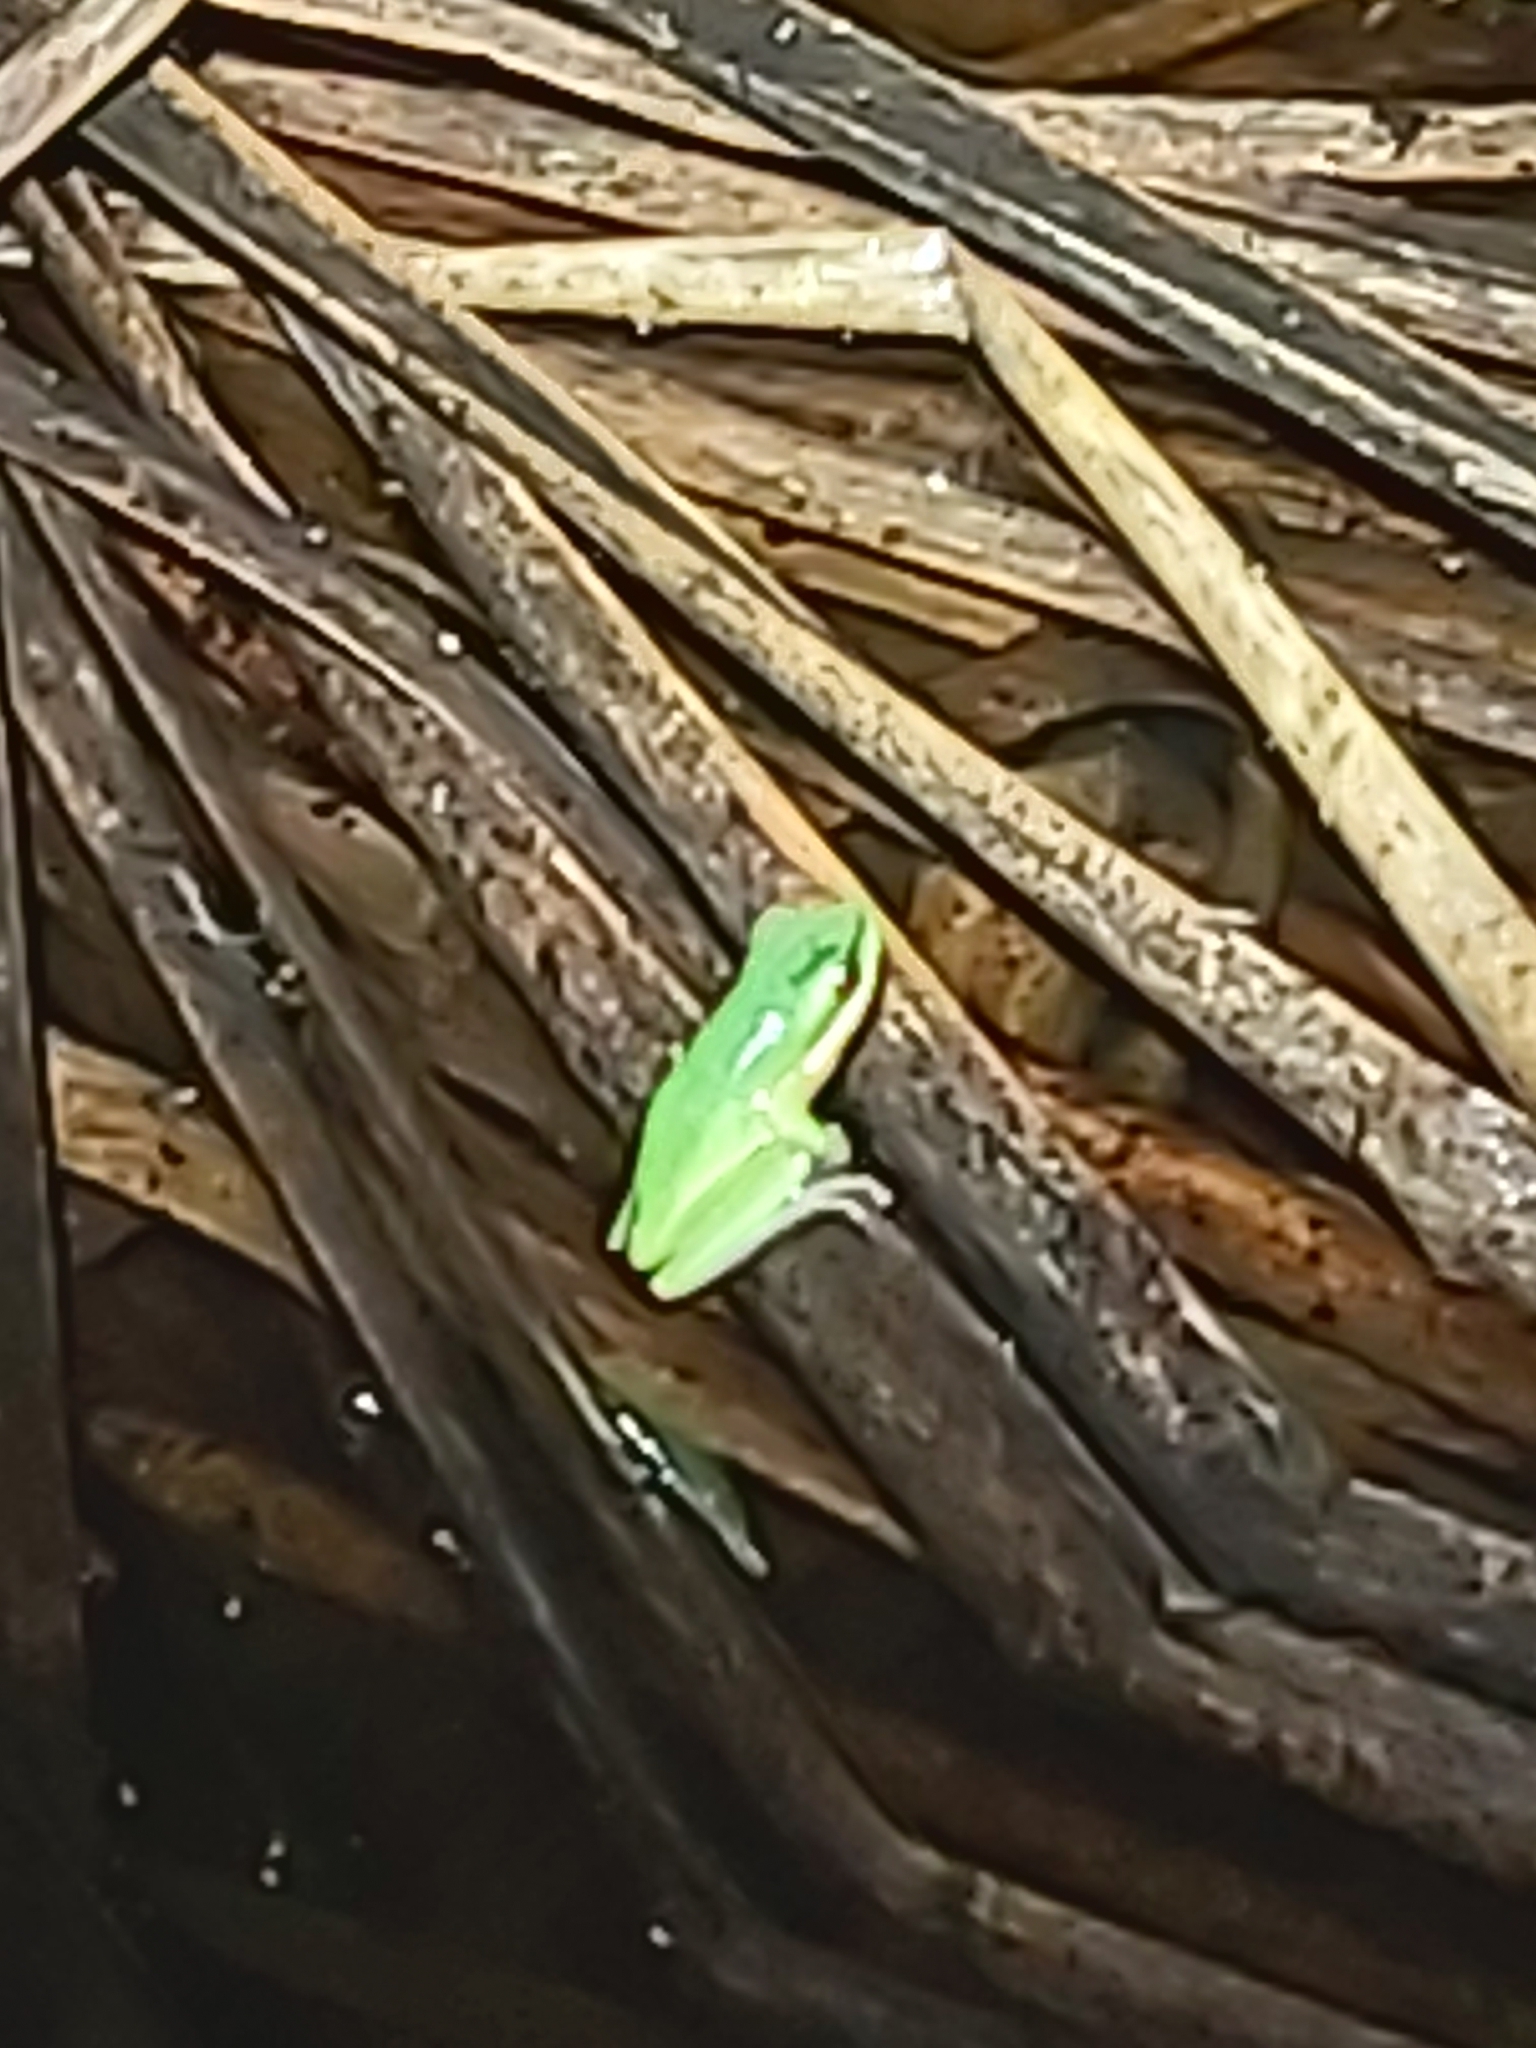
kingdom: Animalia
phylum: Chordata
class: Amphibia
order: Anura
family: Pelodryadidae
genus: Litoria
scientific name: Litoria fallax
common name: Eastern dwarf treefrog
